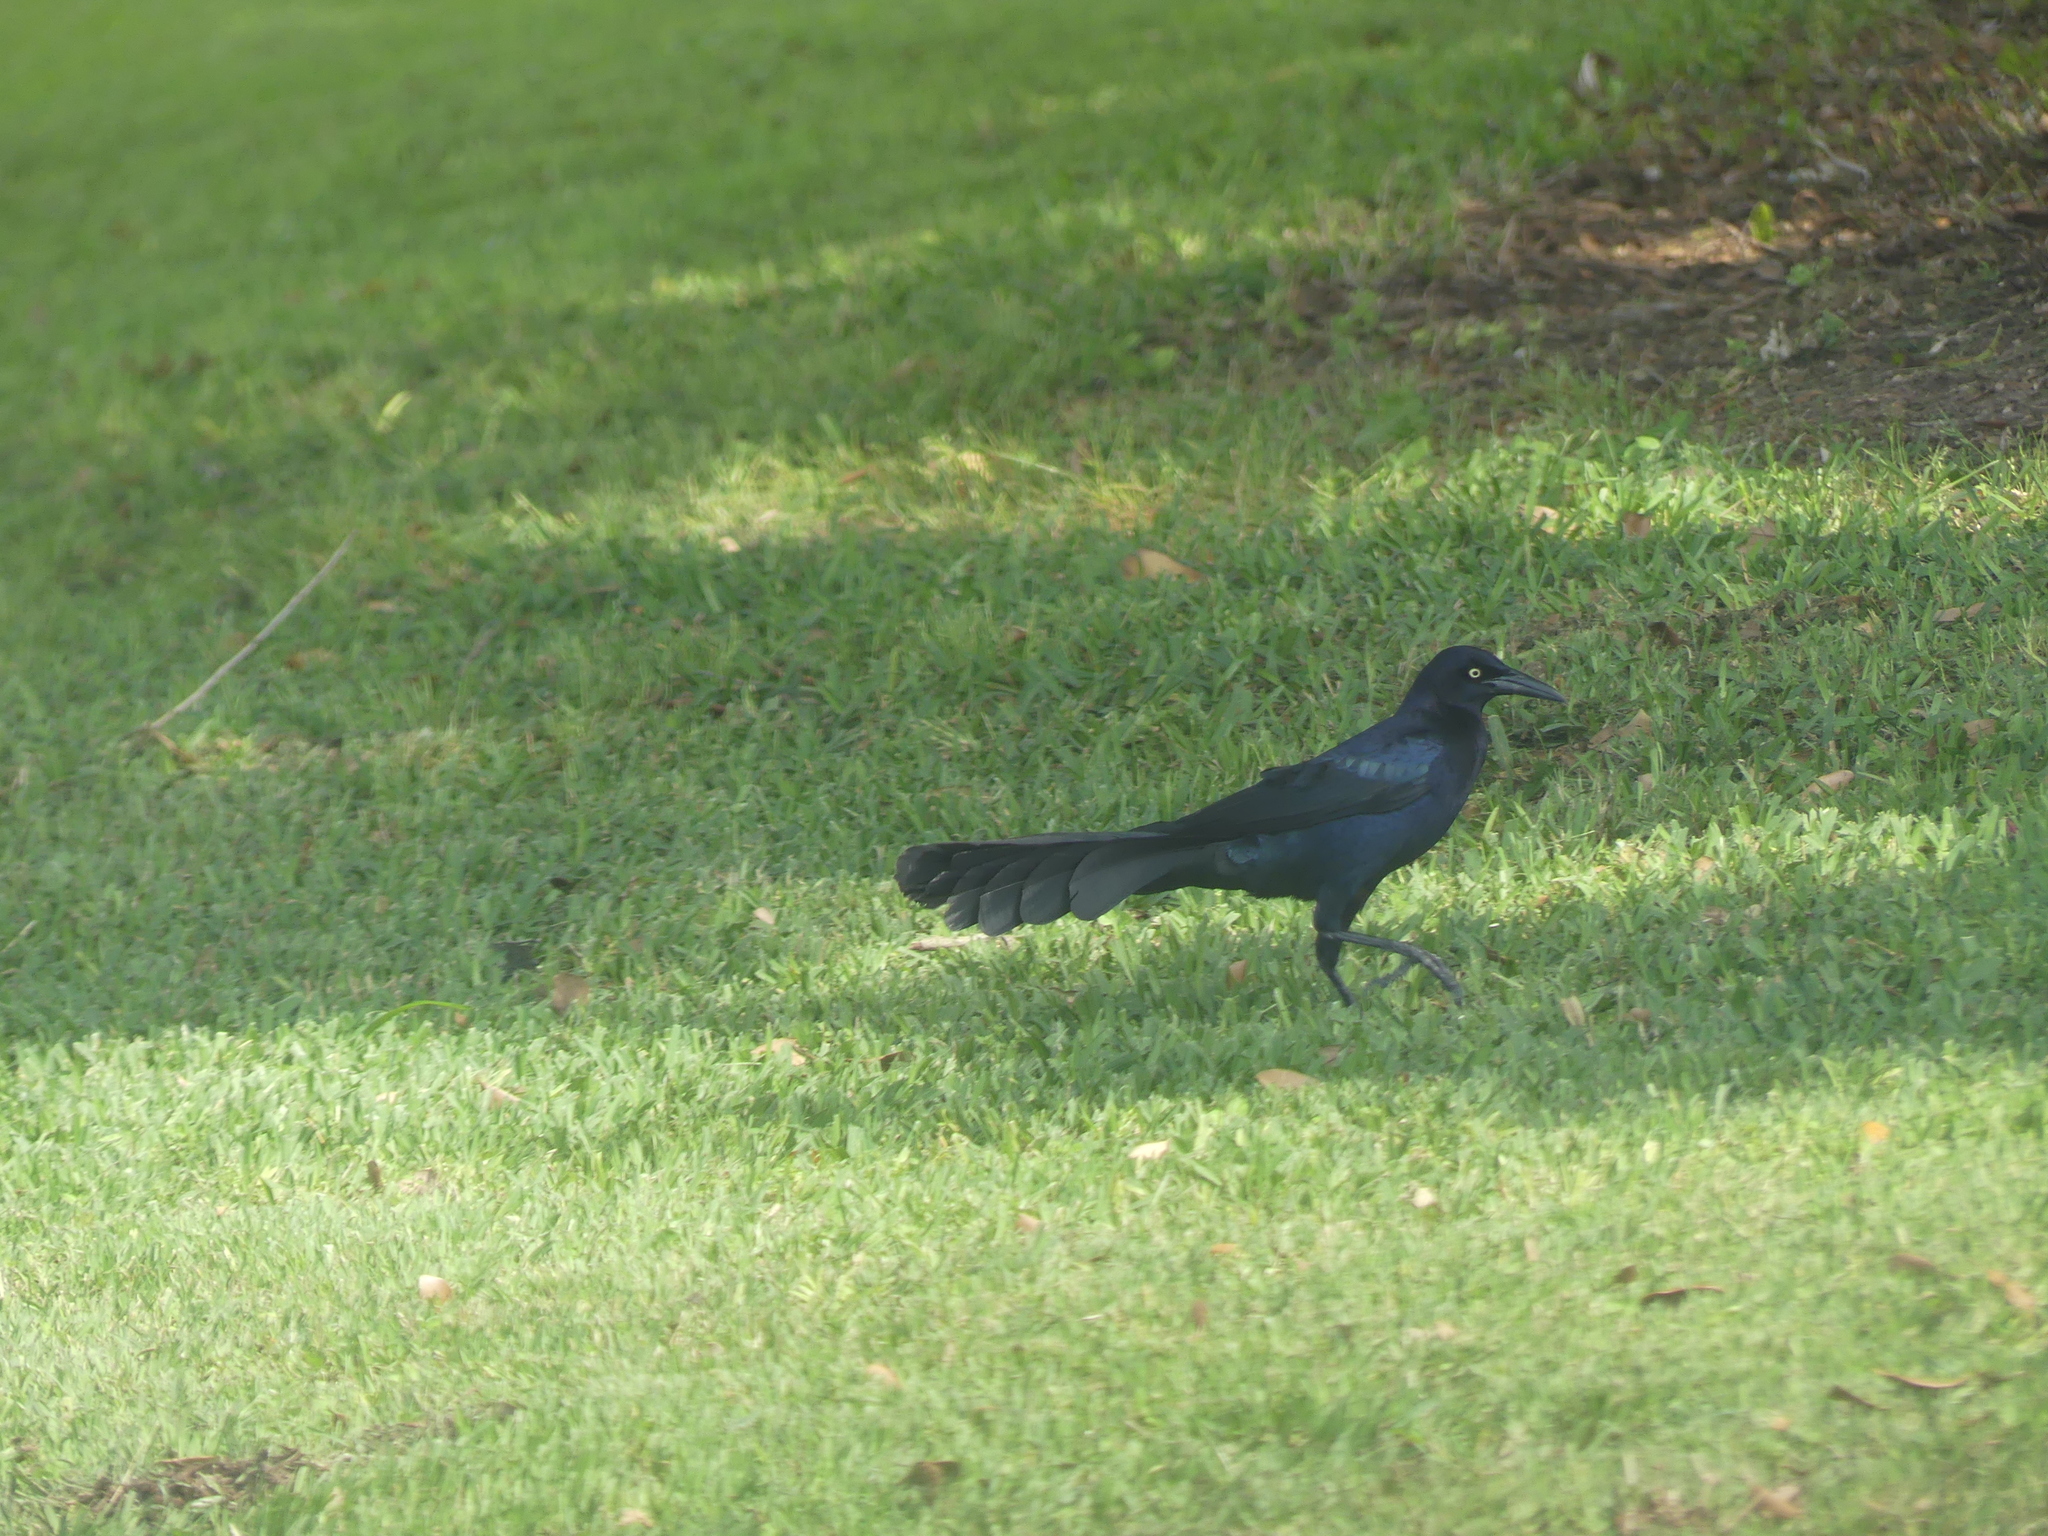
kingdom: Animalia
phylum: Chordata
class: Aves
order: Passeriformes
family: Icteridae
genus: Quiscalus
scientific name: Quiscalus mexicanus
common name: Great-tailed grackle
